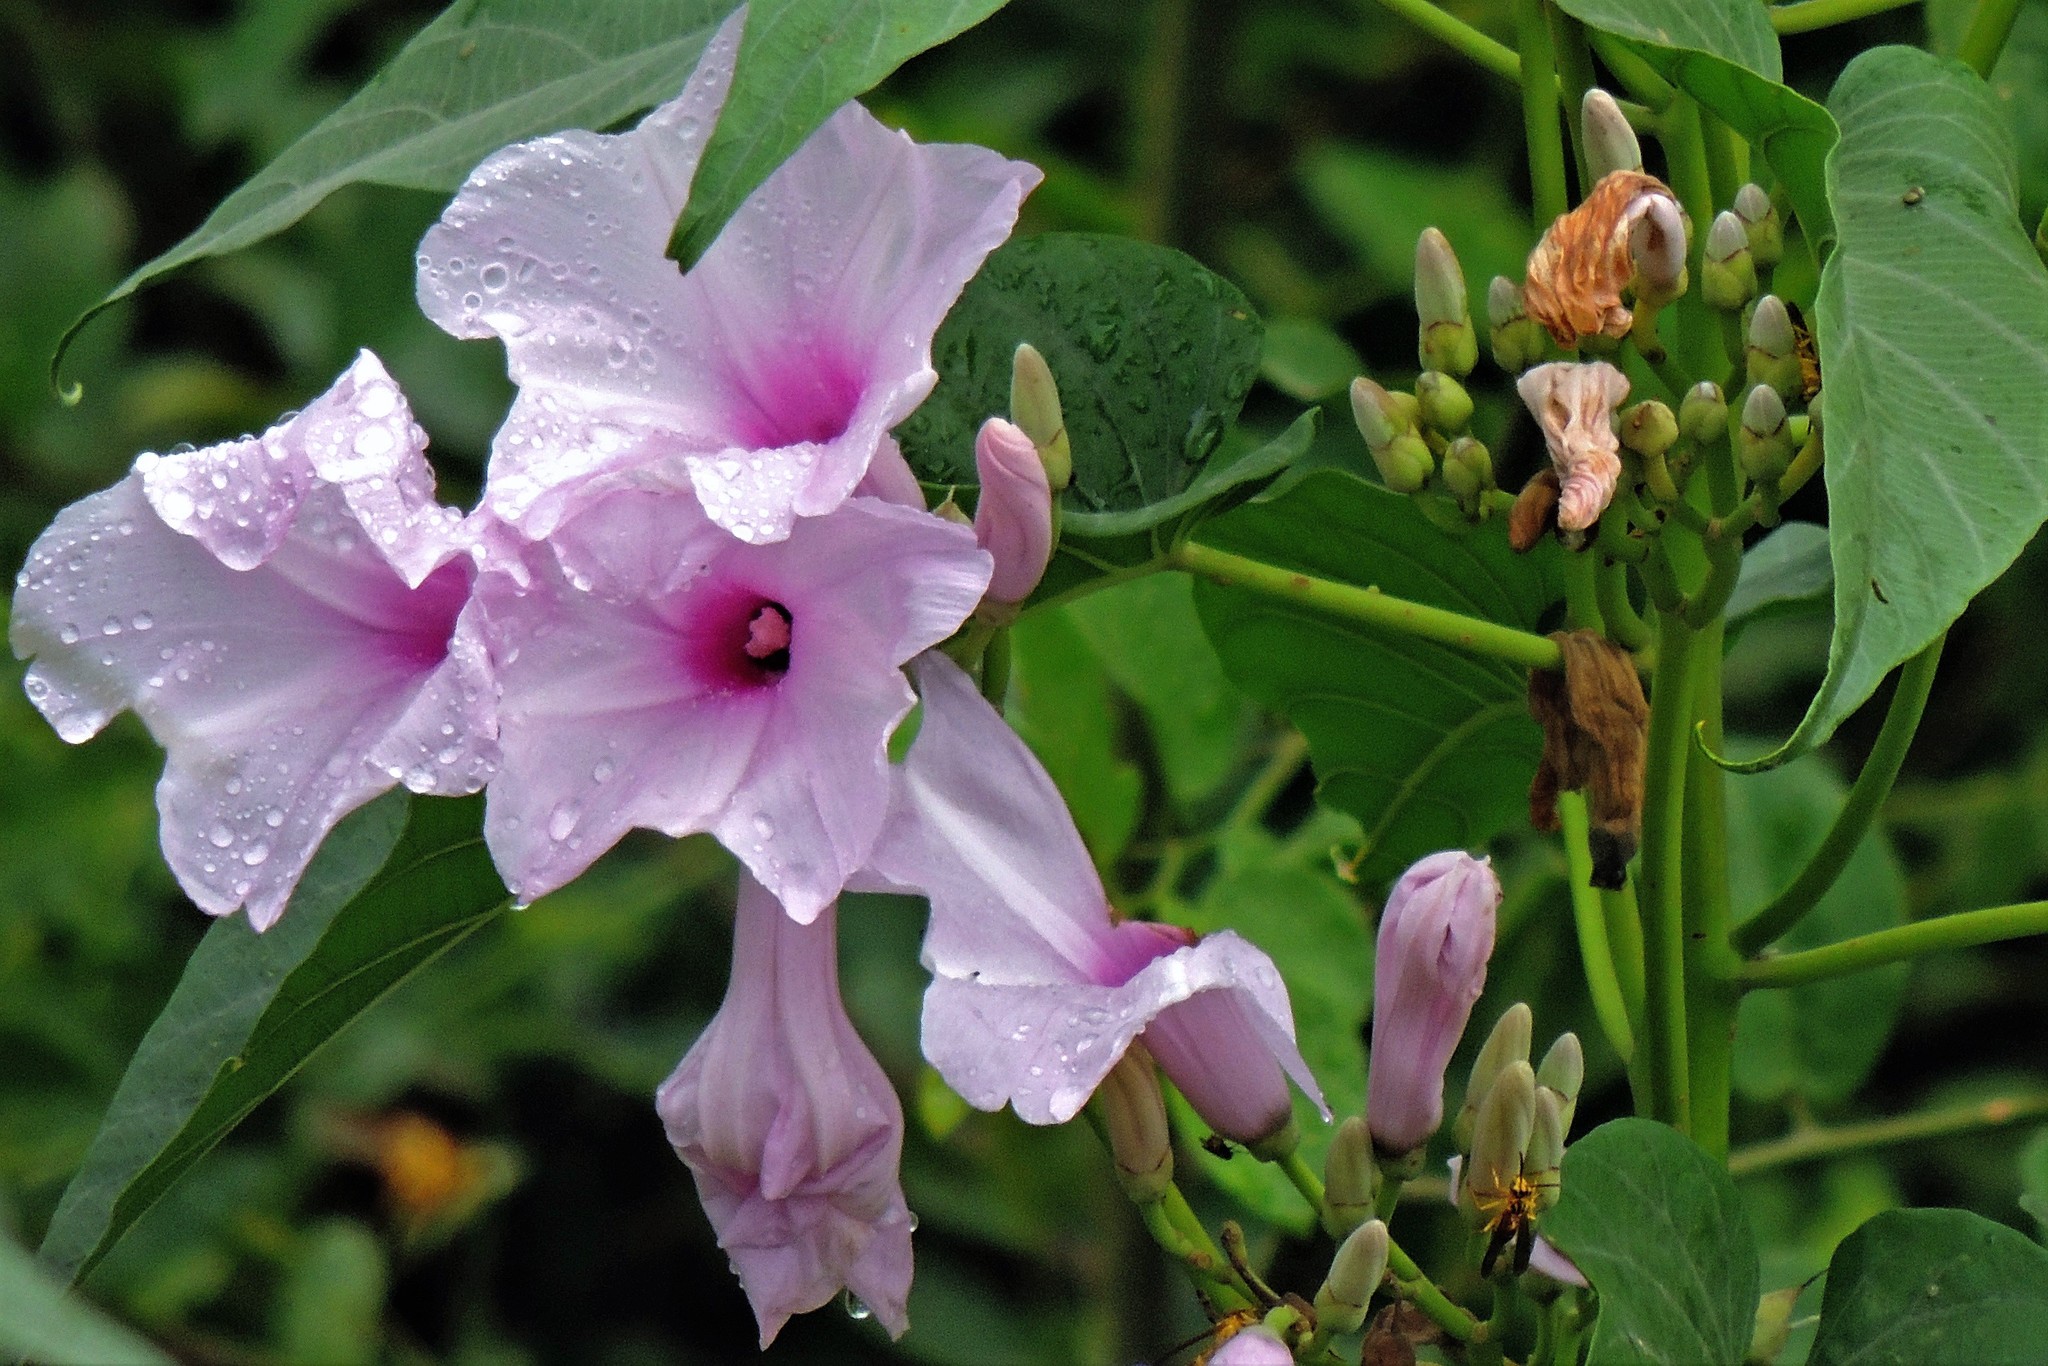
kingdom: Plantae
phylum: Tracheophyta
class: Magnoliopsida
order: Solanales
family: Convolvulaceae
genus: Ipomoea
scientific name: Ipomoea carnea
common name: Morning-glory
